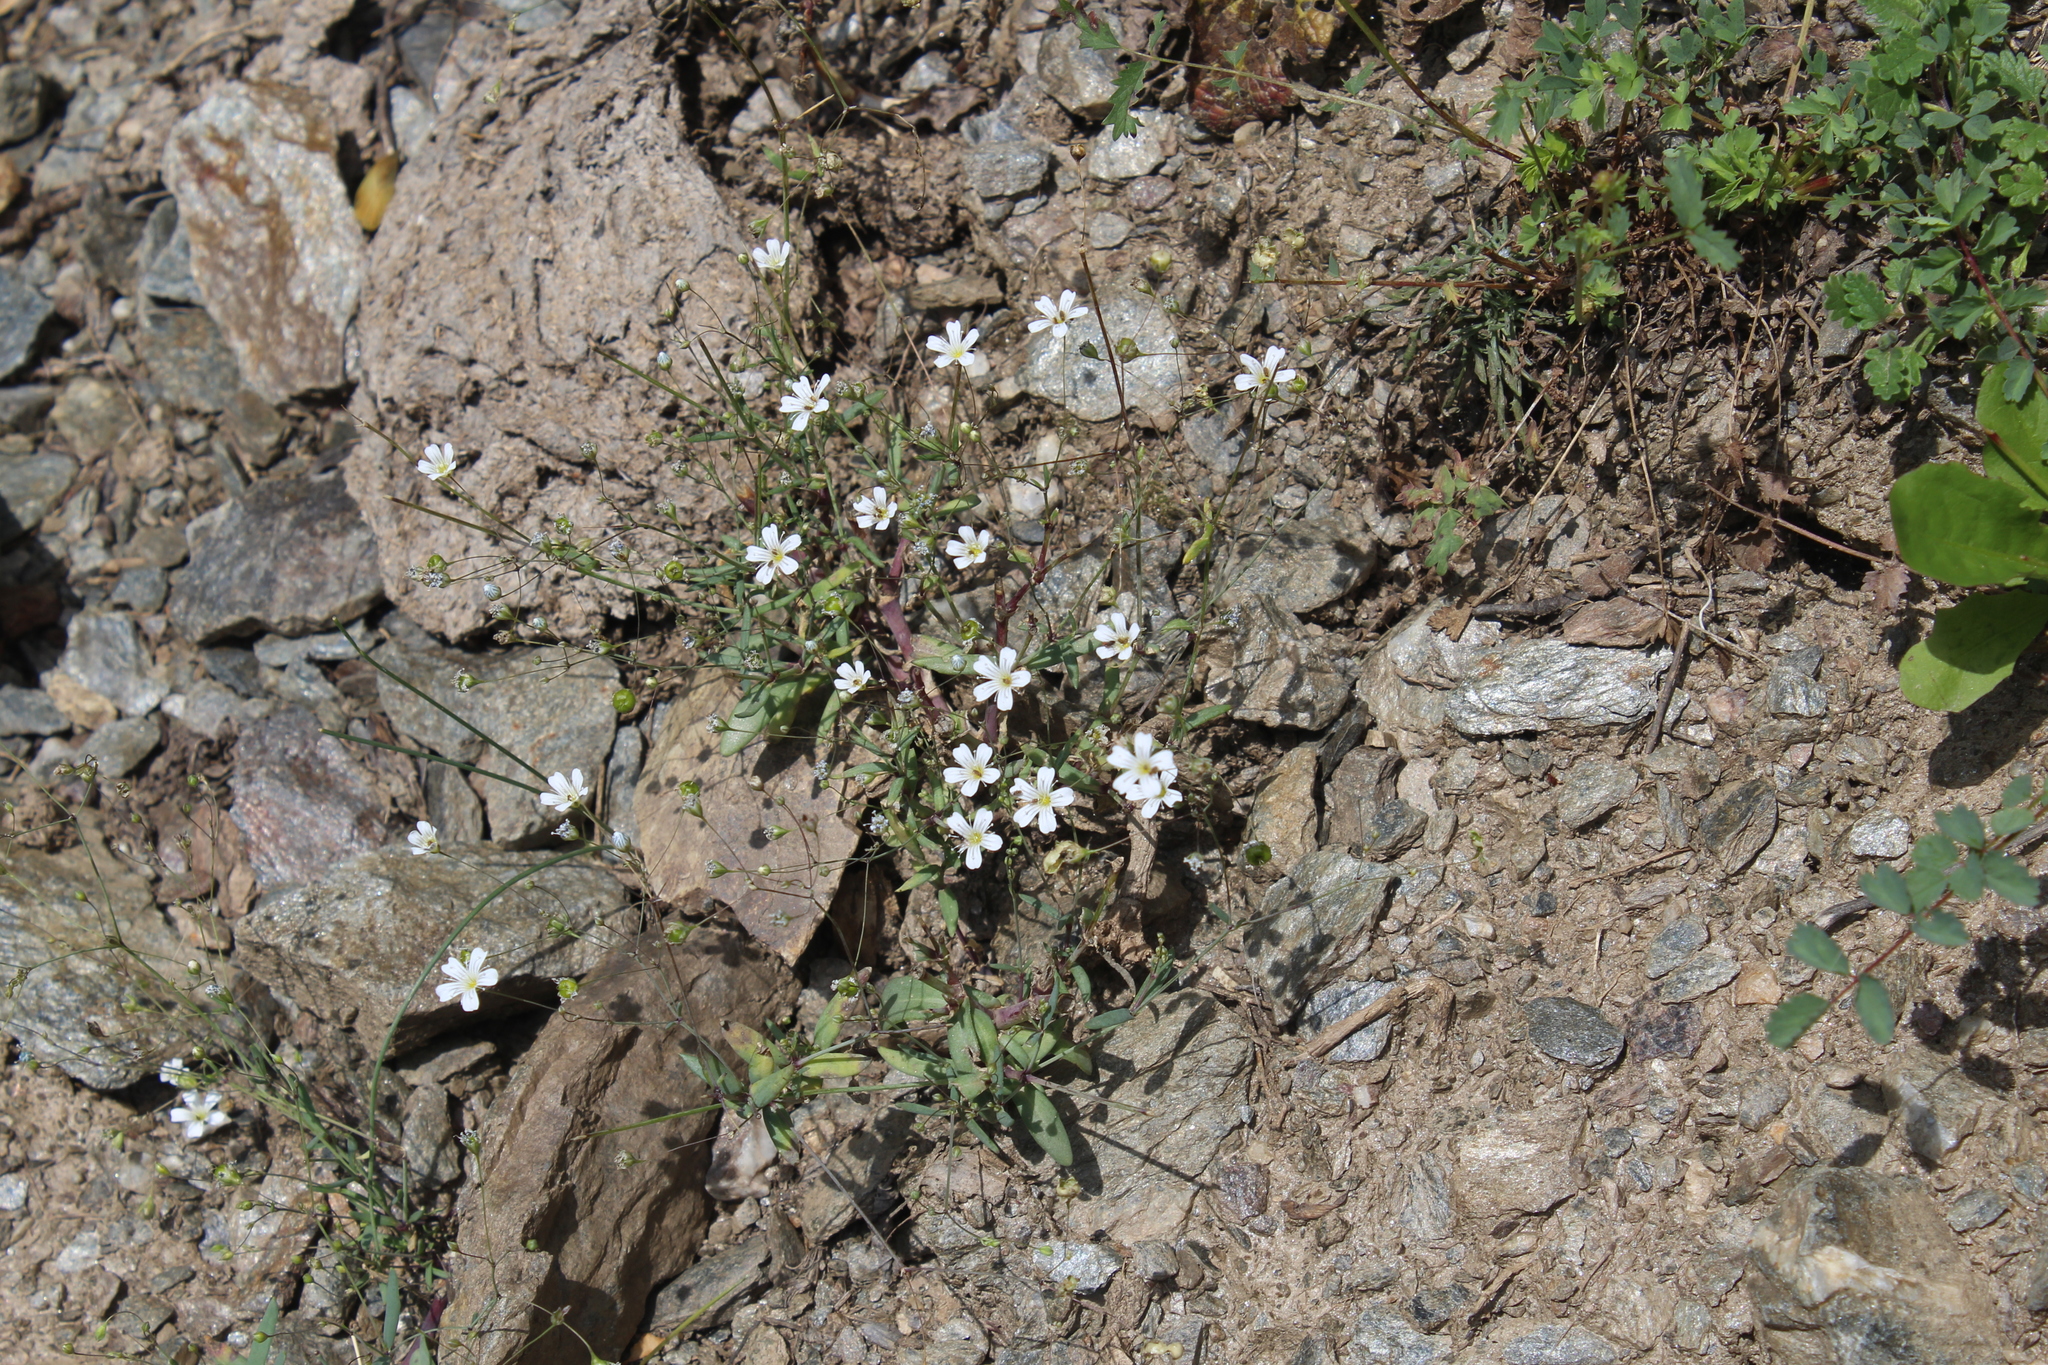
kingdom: Plantae
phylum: Tracheophyta
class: Magnoliopsida
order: Caryophyllales
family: Caryophyllaceae
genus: Gypsophila
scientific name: Gypsophila elegans
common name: Showy baby's-breath
